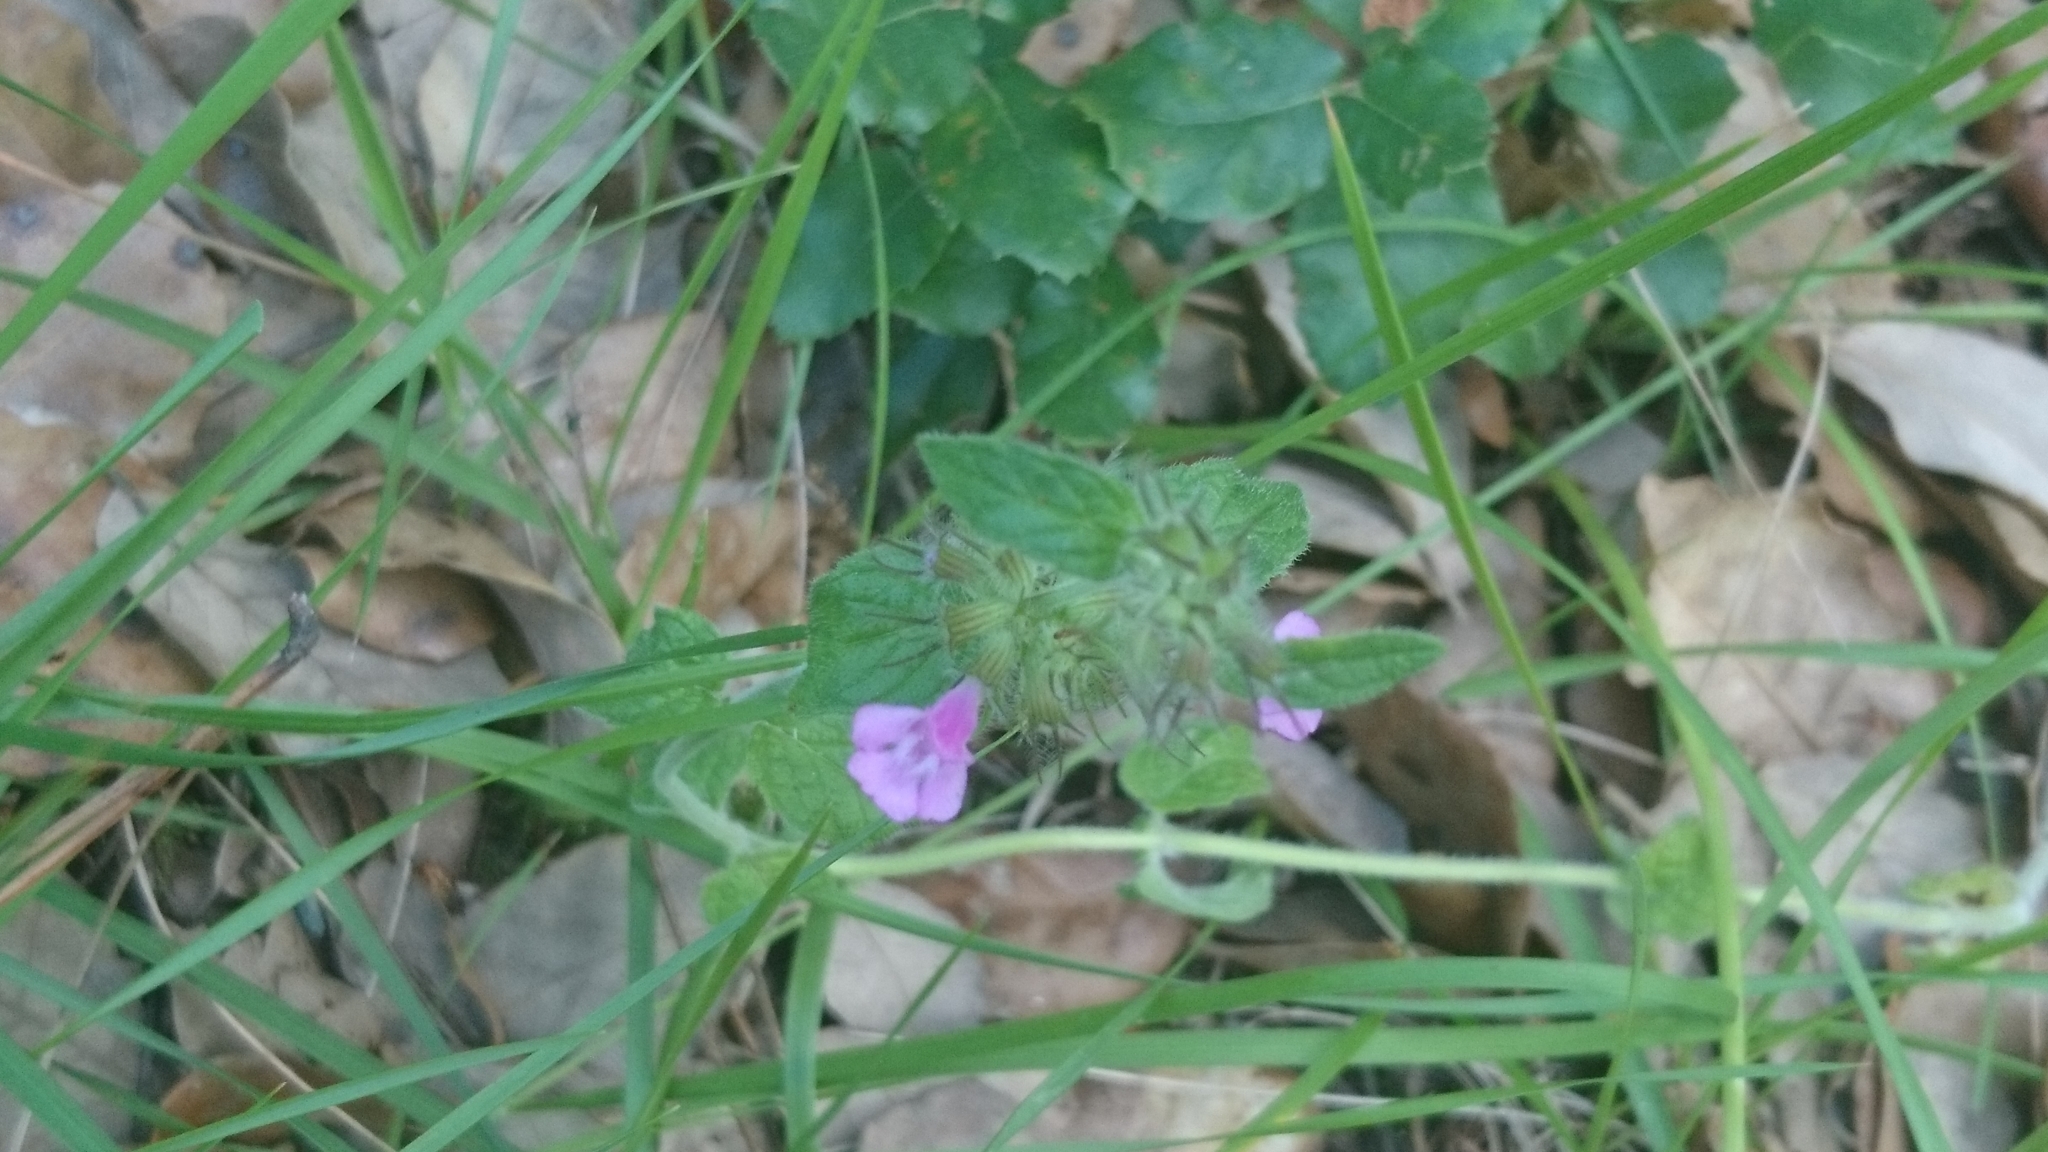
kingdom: Plantae
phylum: Tracheophyta
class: Magnoliopsida
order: Lamiales
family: Lamiaceae
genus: Clinopodium
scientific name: Clinopodium vulgare
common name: Wild basil
